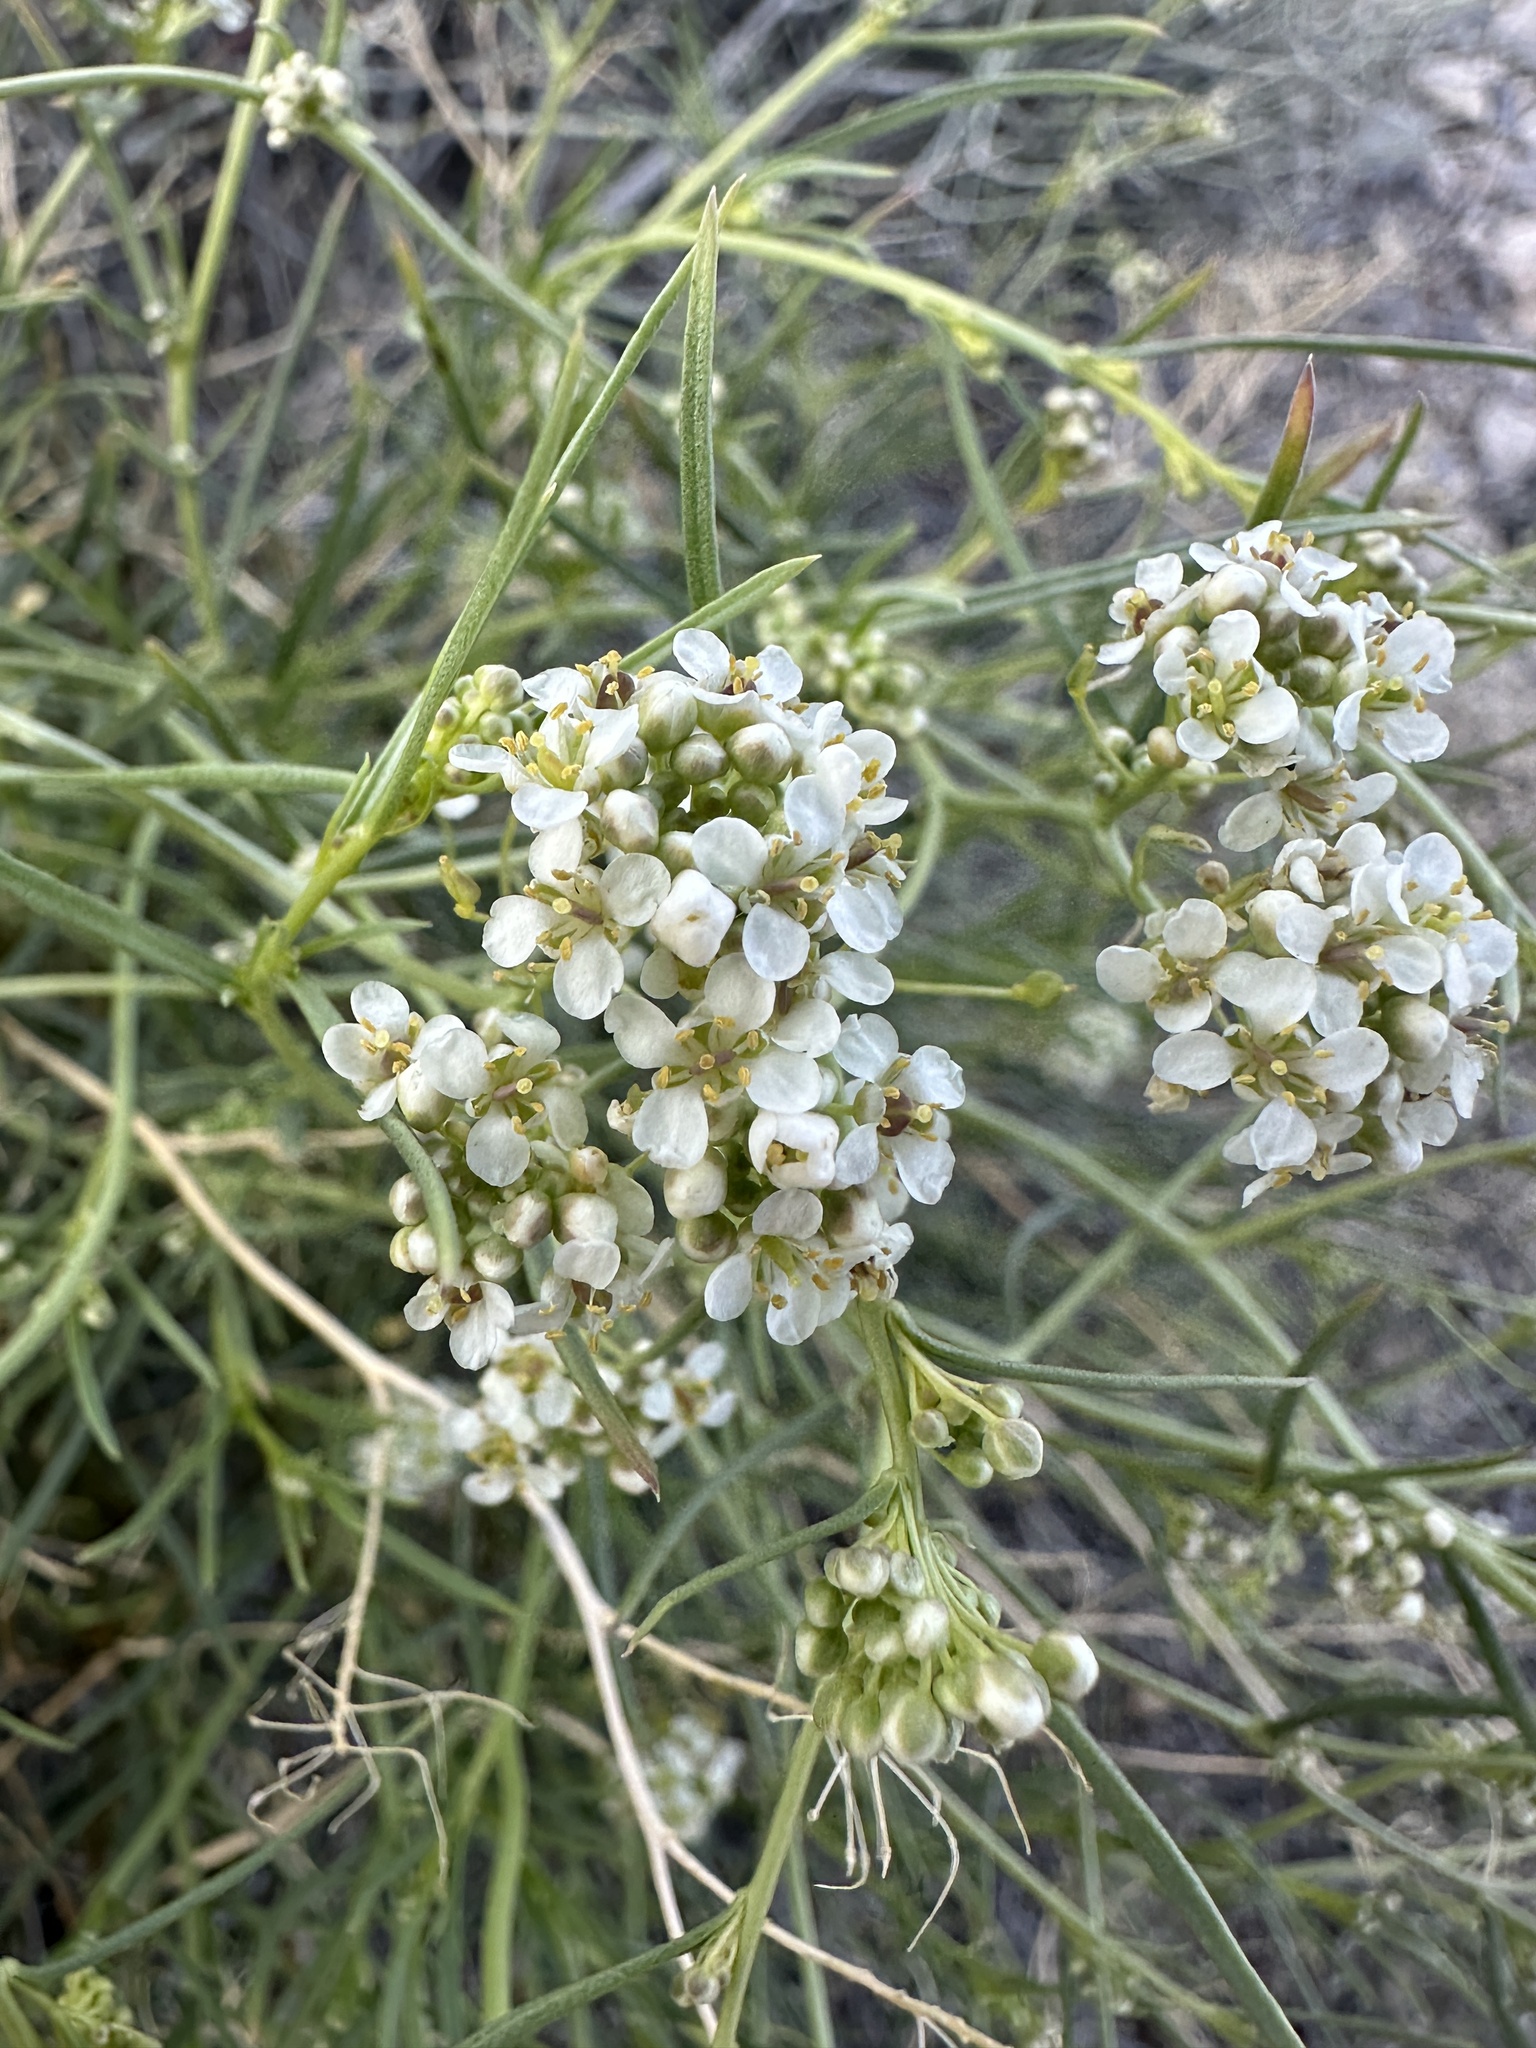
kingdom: Plantae
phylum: Tracheophyta
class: Magnoliopsida
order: Brassicales
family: Brassicaceae
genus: Lepidium
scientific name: Lepidium fremontii
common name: Fremont's pepperwort
